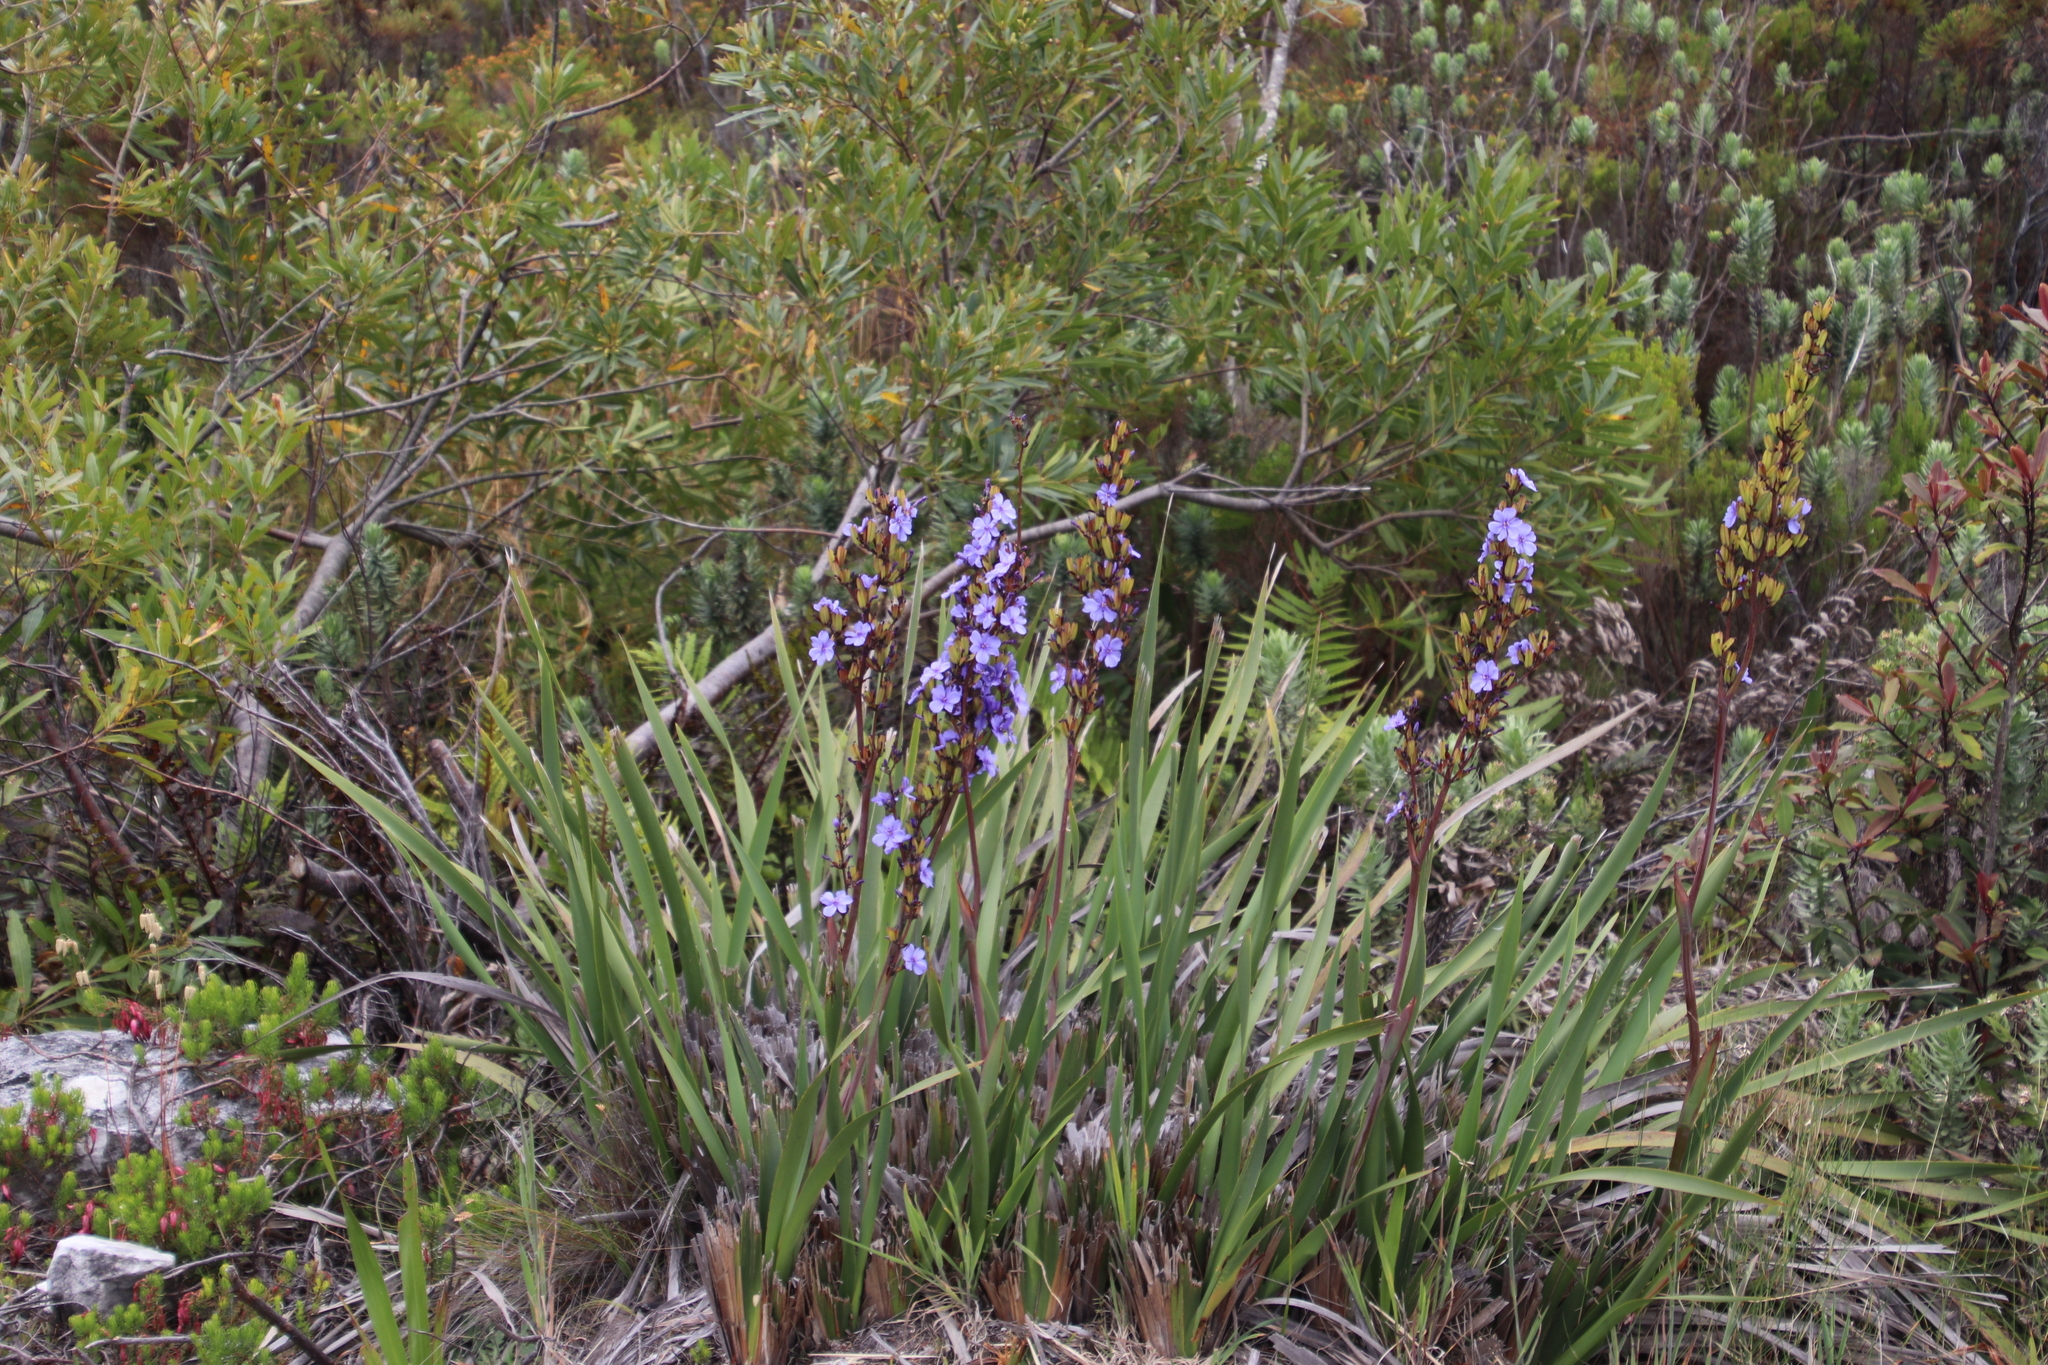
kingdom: Plantae
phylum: Tracheophyta
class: Liliopsida
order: Asparagales
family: Iridaceae
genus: Aristea
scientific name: Aristea bakeri
